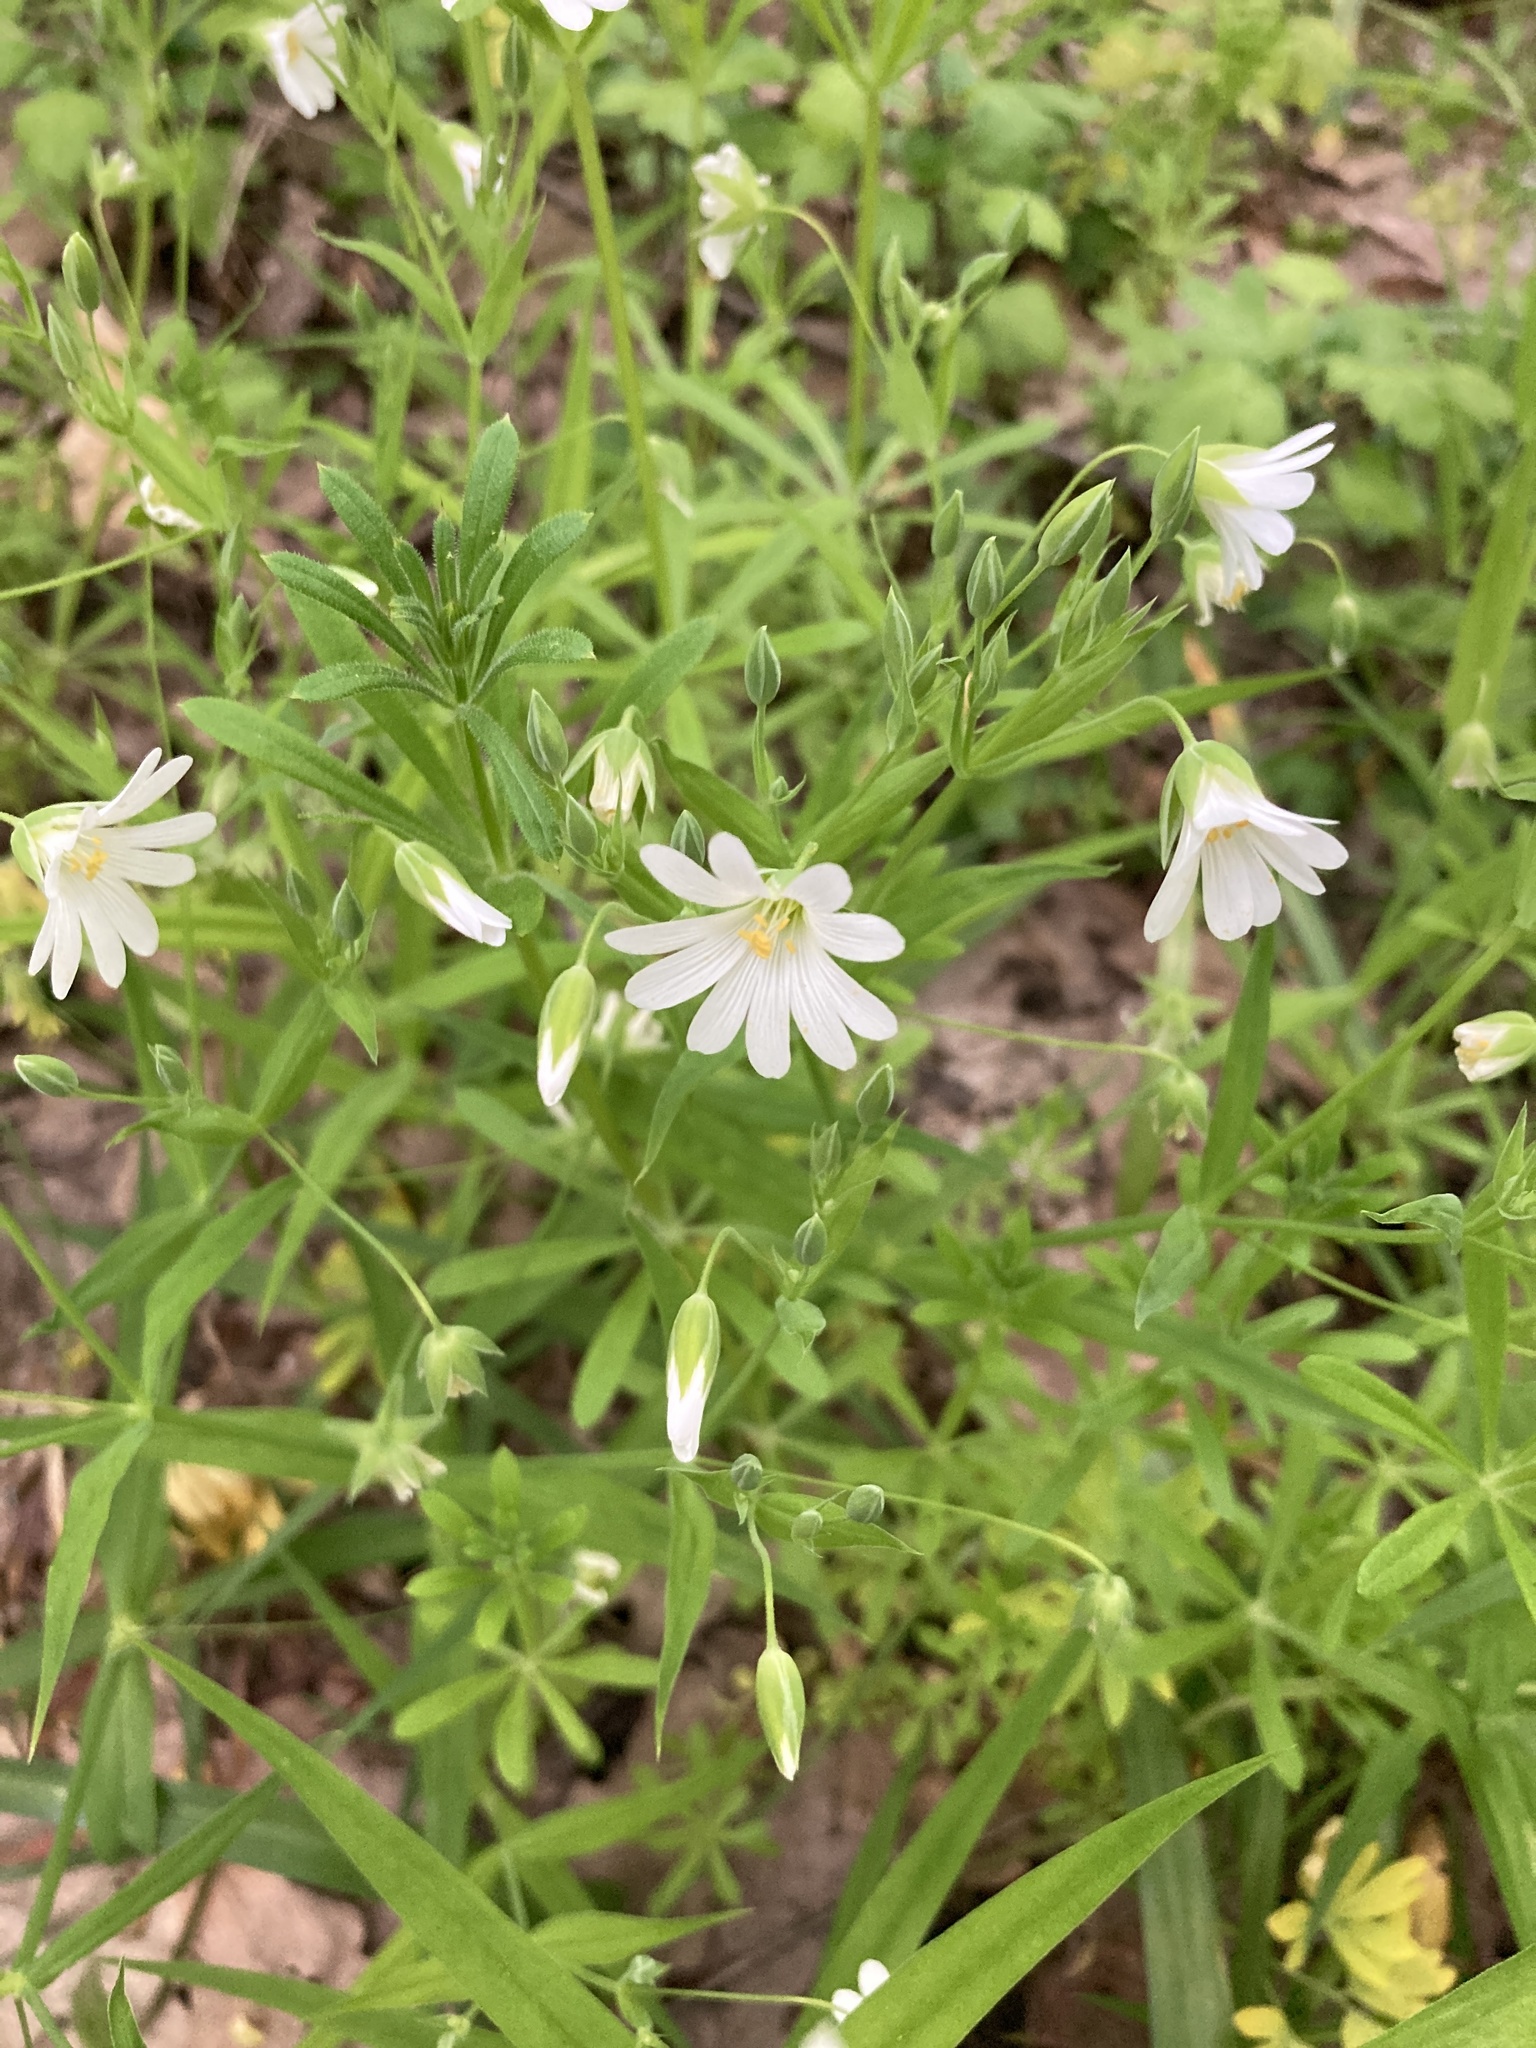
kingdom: Plantae
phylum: Tracheophyta
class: Magnoliopsida
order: Caryophyllales
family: Caryophyllaceae
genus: Rabelera
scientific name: Rabelera holostea
